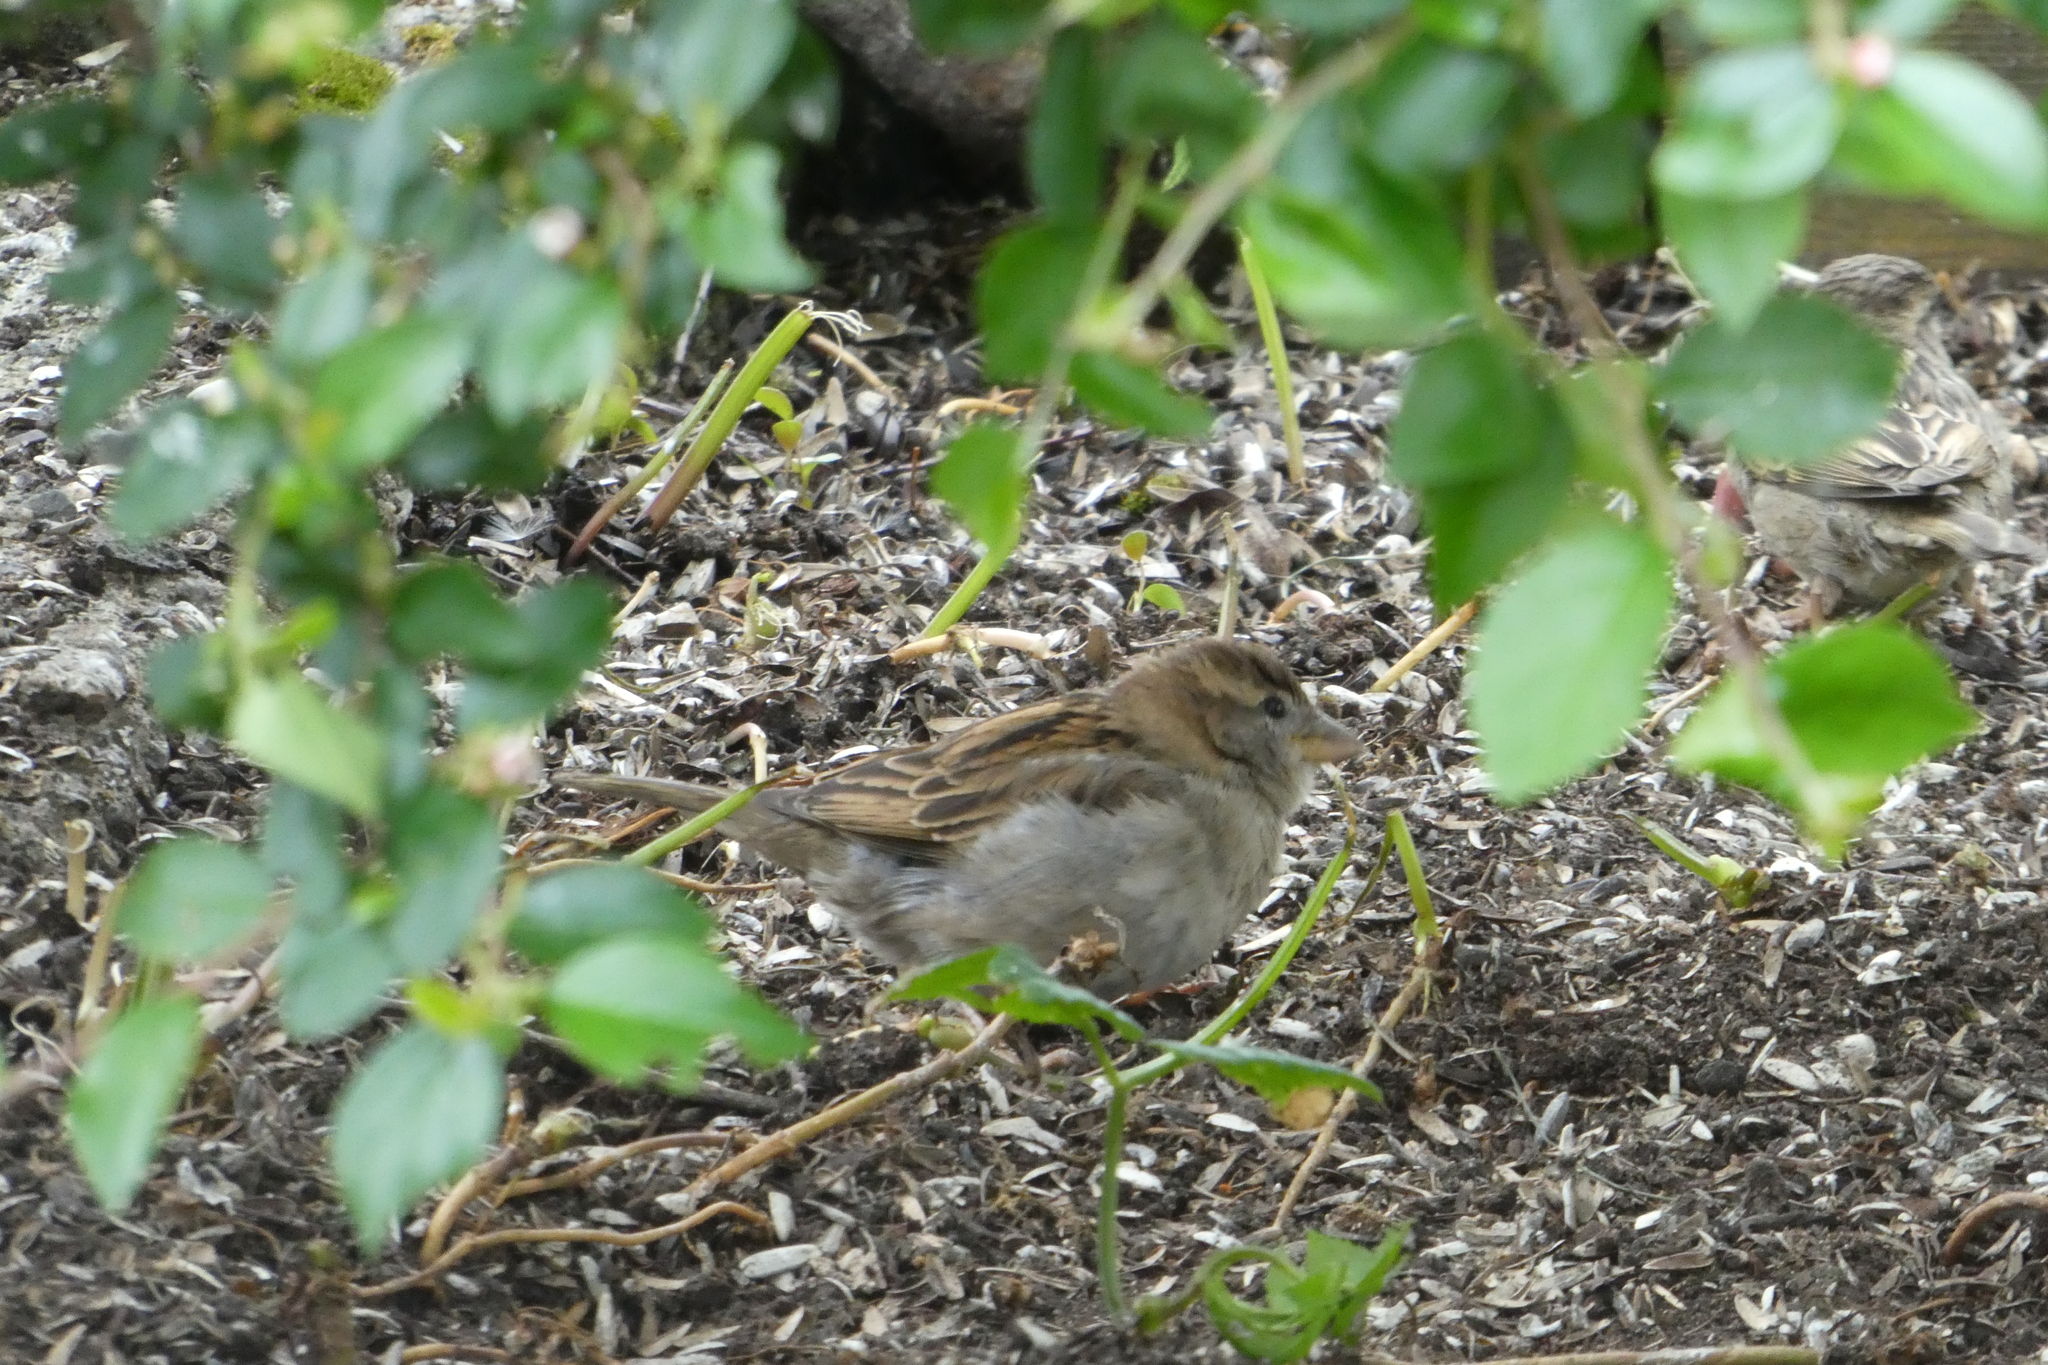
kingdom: Animalia
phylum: Chordata
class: Aves
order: Passeriformes
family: Passeridae
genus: Passer
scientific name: Passer domesticus
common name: House sparrow
